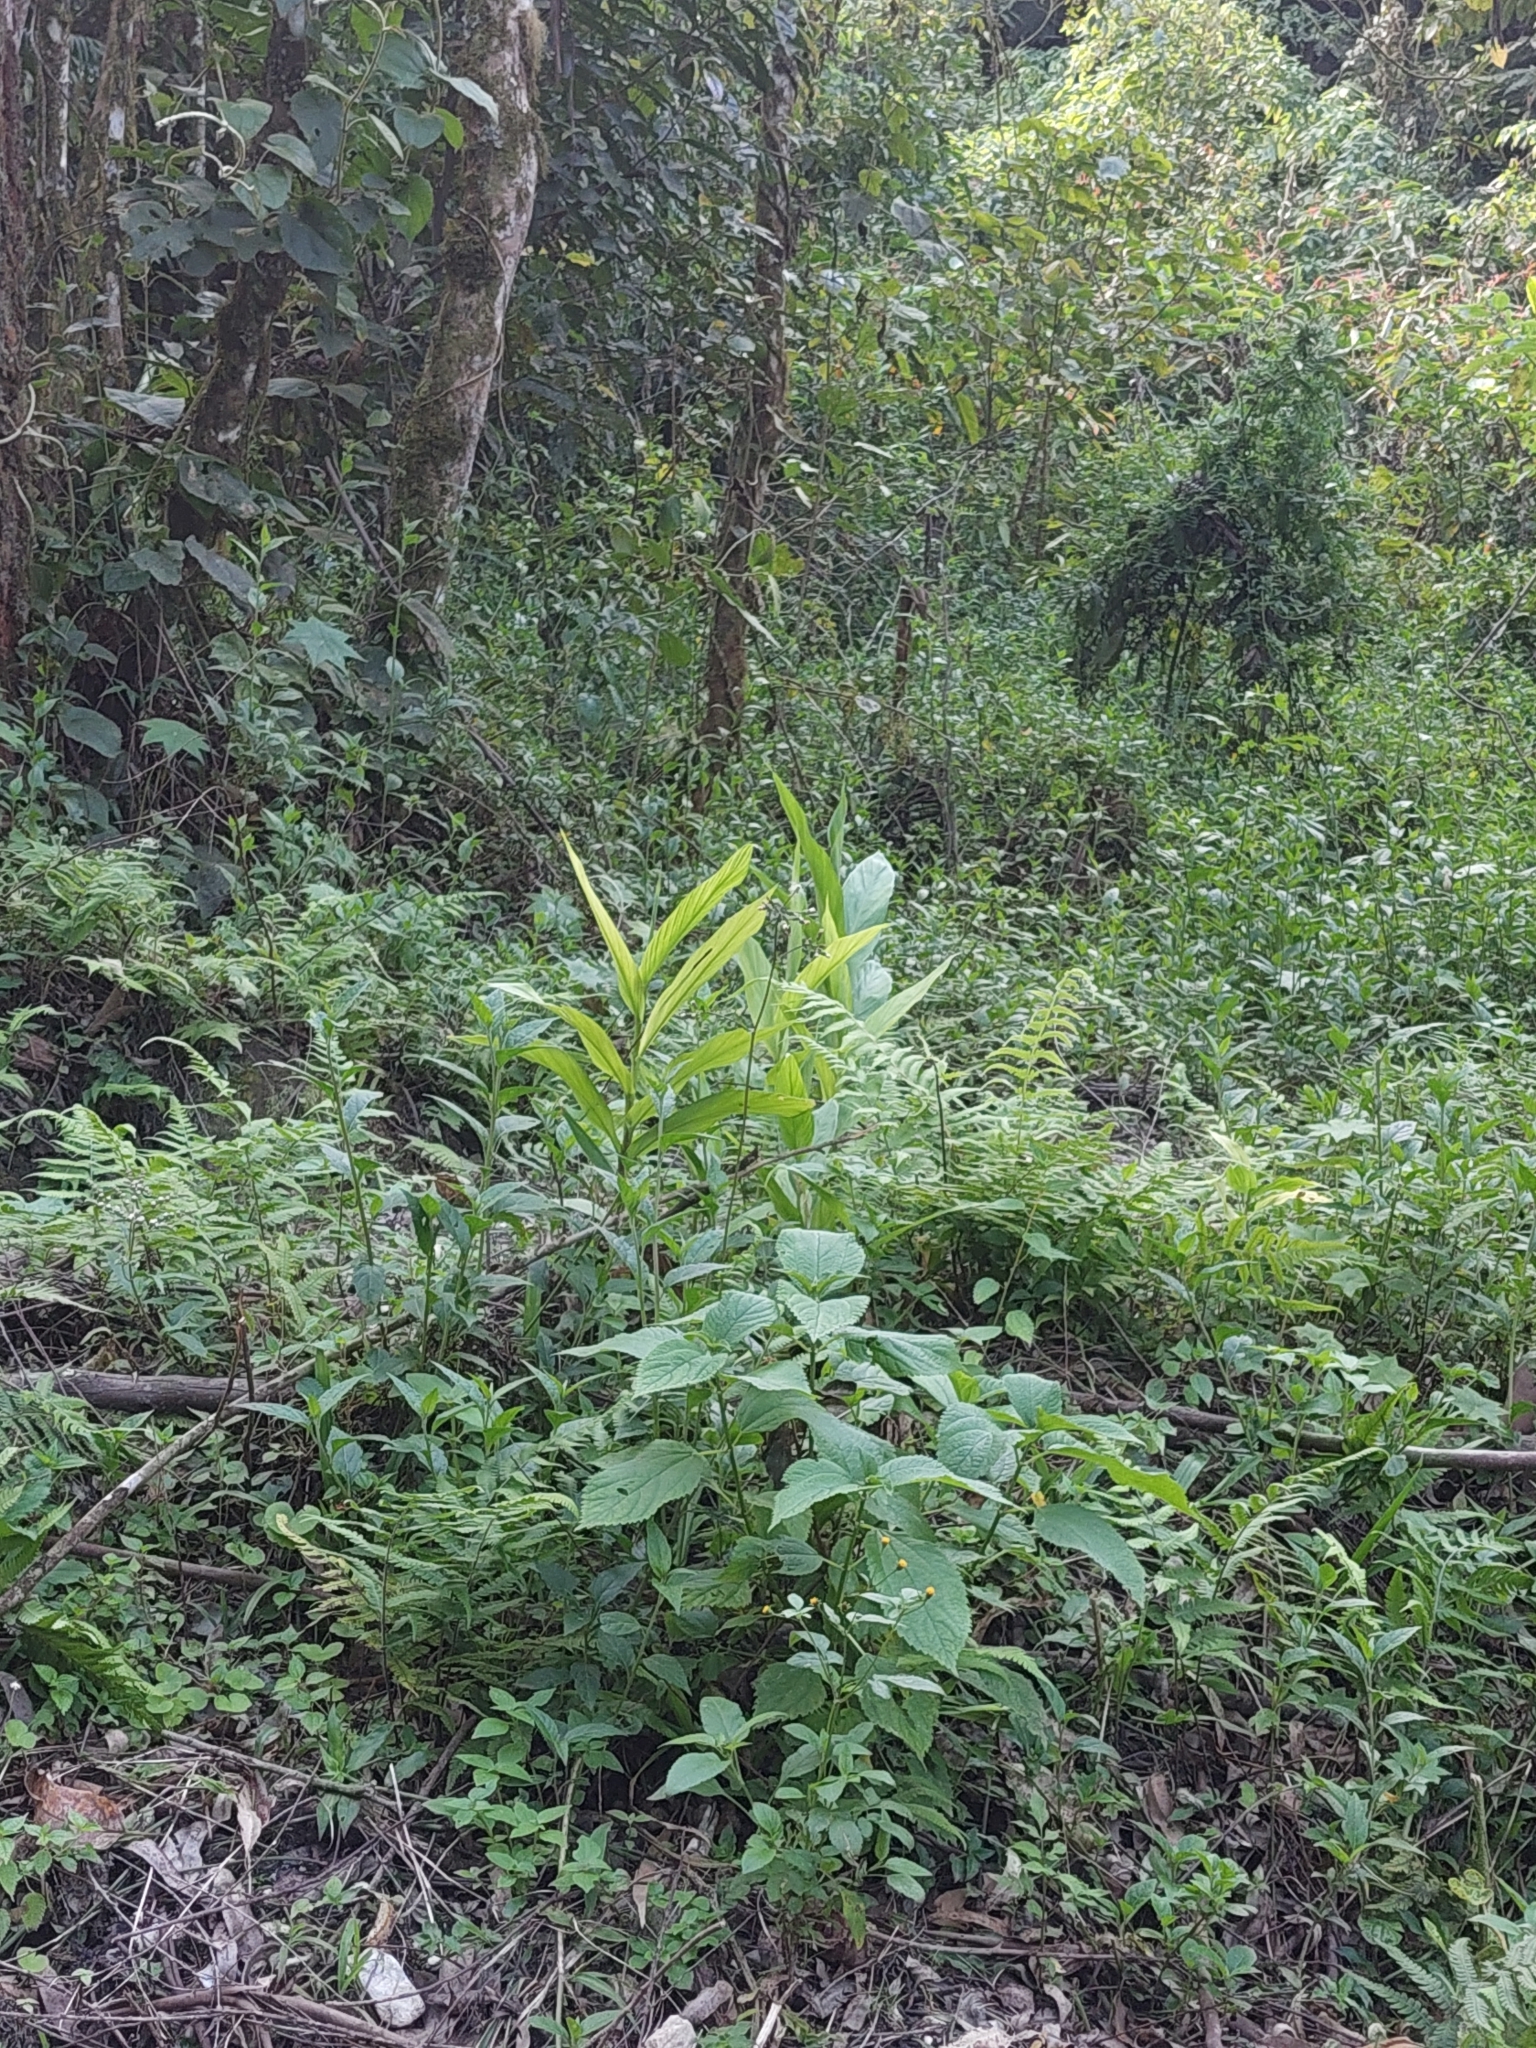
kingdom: Plantae
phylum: Tracheophyta
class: Liliopsida
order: Zingiberales
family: Zingiberaceae
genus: Hedychium
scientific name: Hedychium coronarium
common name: White garland-lily
